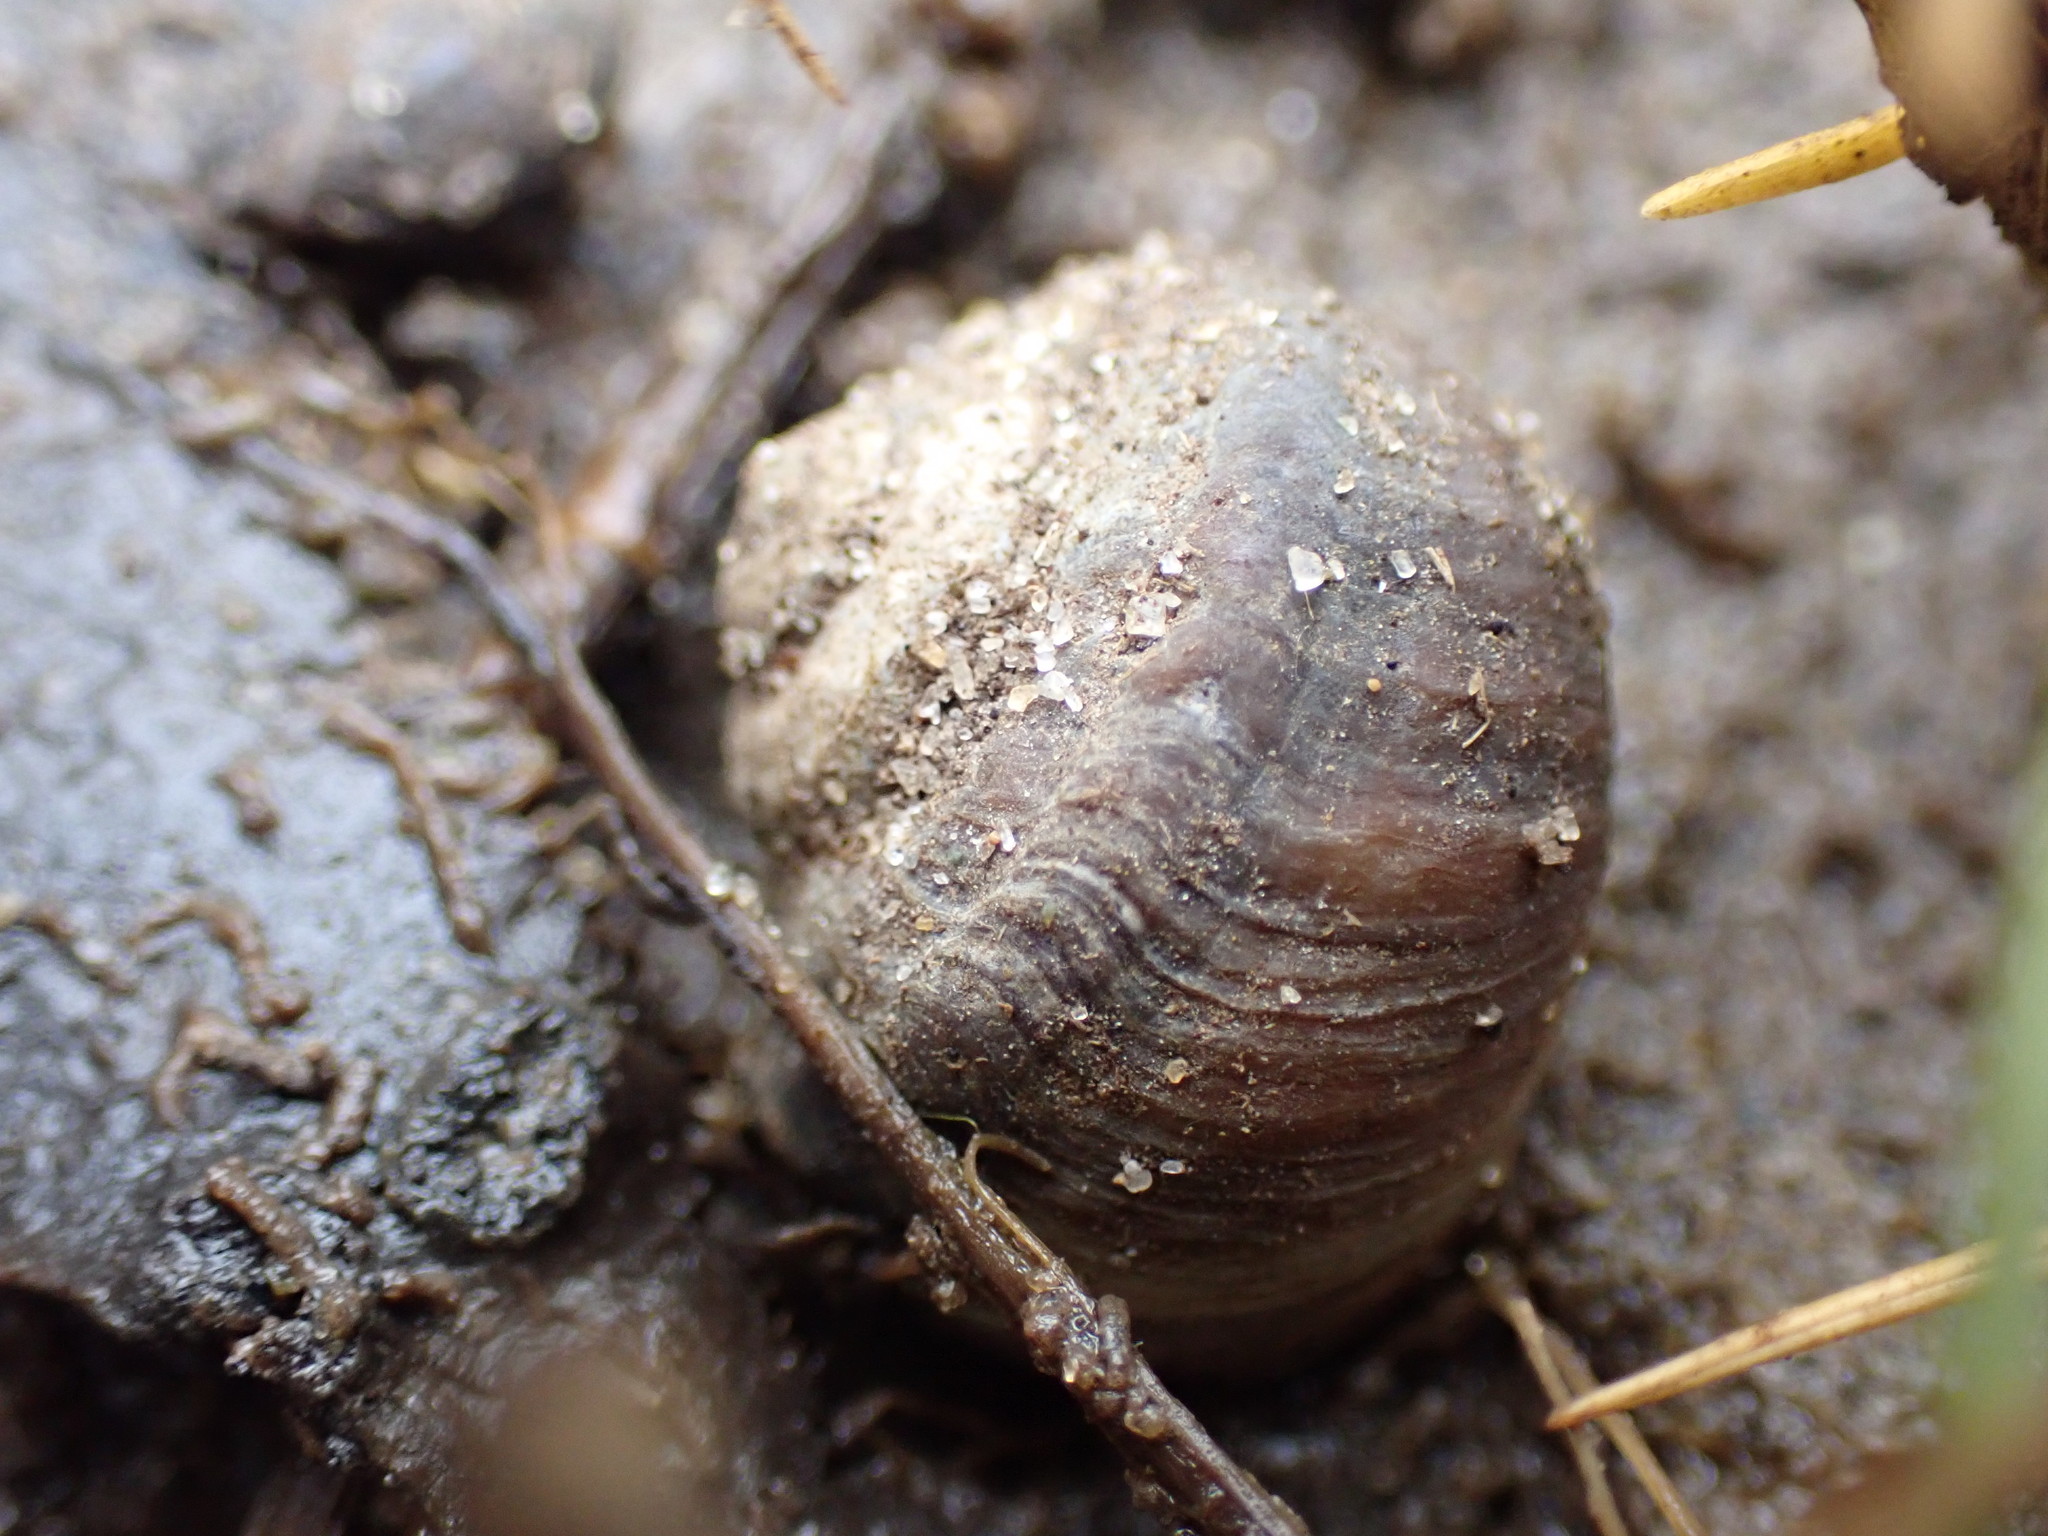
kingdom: Animalia
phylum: Mollusca
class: Gastropoda
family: Amphibolidae
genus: Amphibola
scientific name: Amphibola crenata
